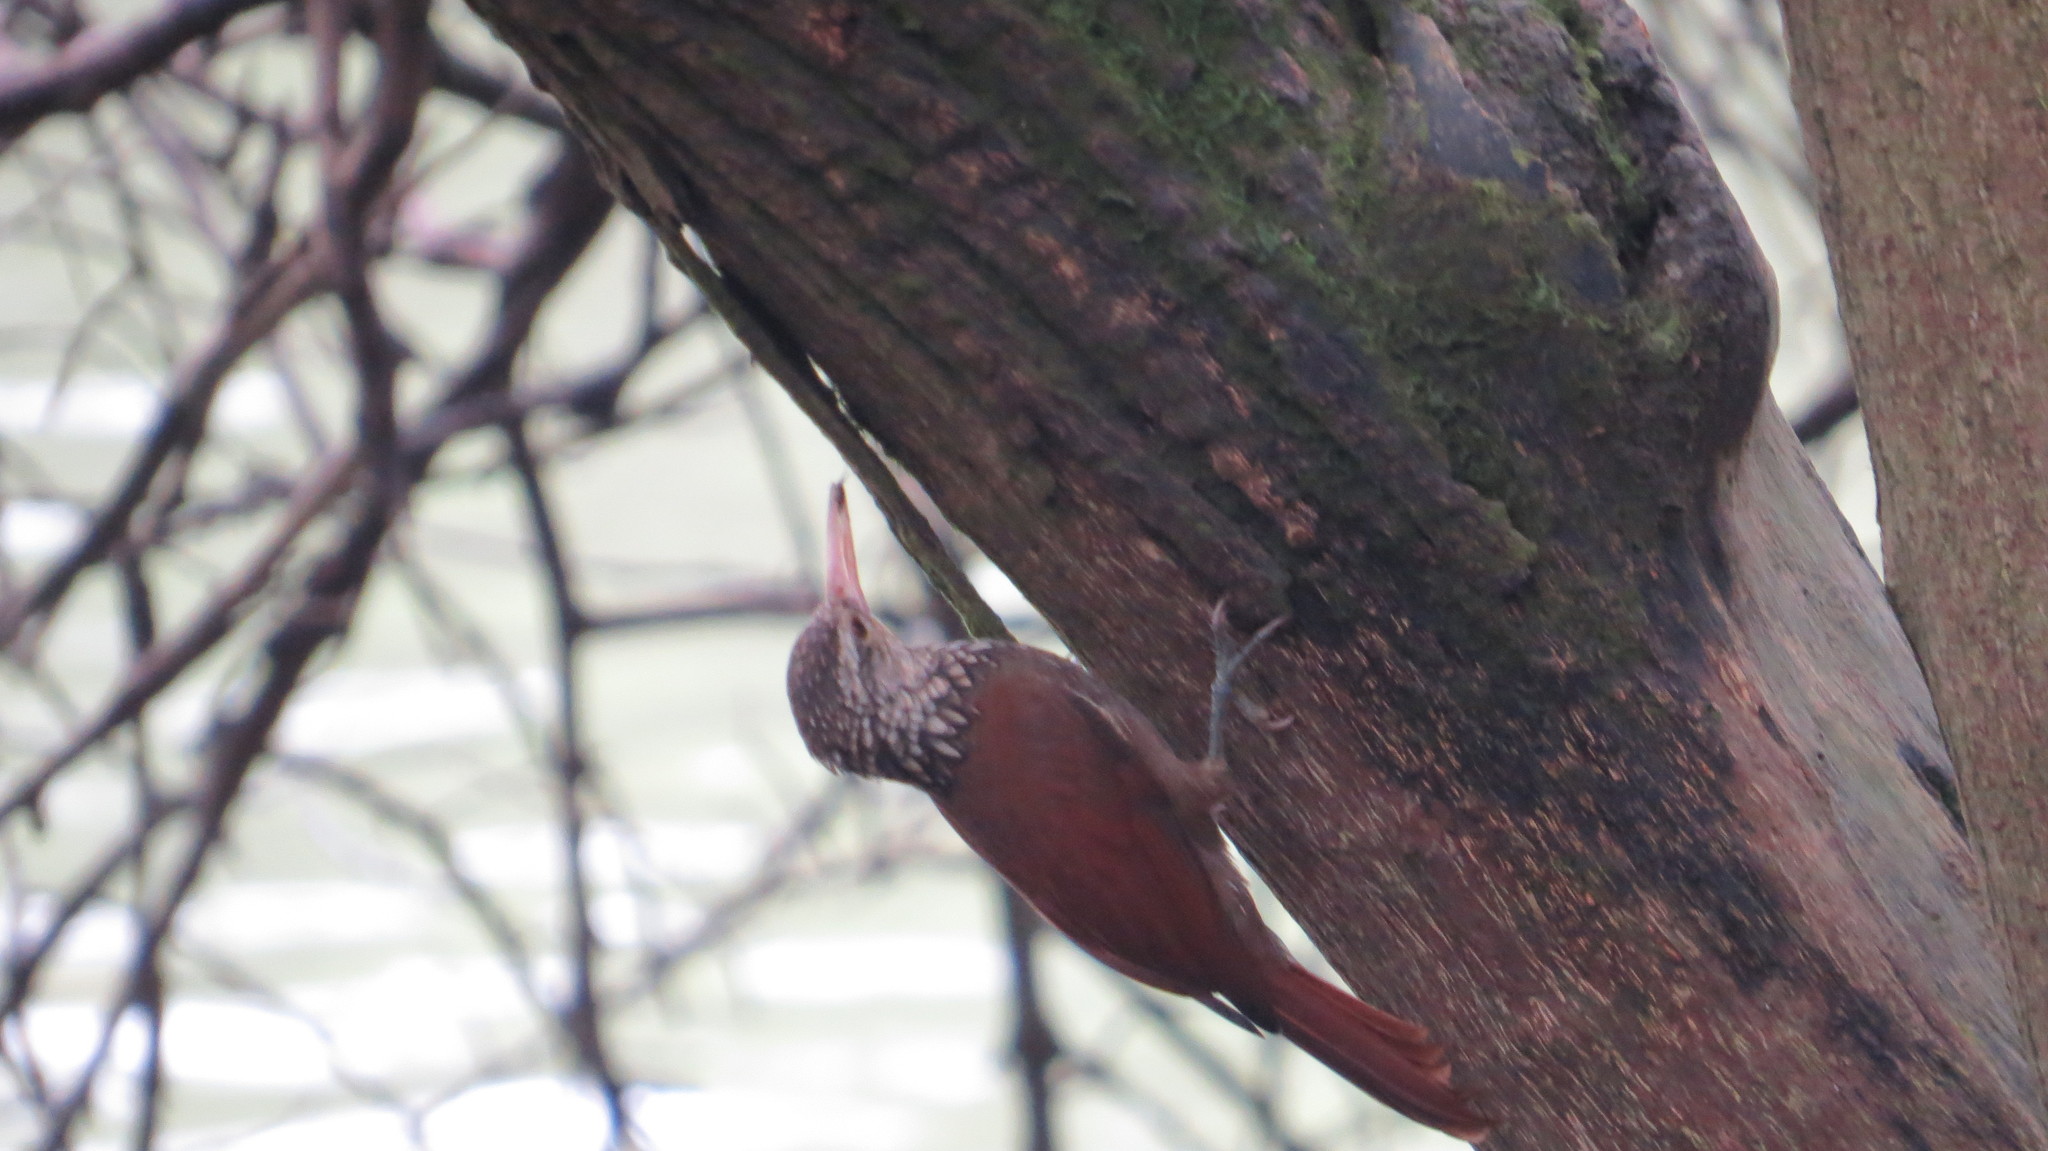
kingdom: Animalia
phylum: Chordata
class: Aves
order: Passeriformes
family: Furnariidae
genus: Xiphorhynchus
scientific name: Xiphorhynchus picus
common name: Straight-billed woodcreeper
